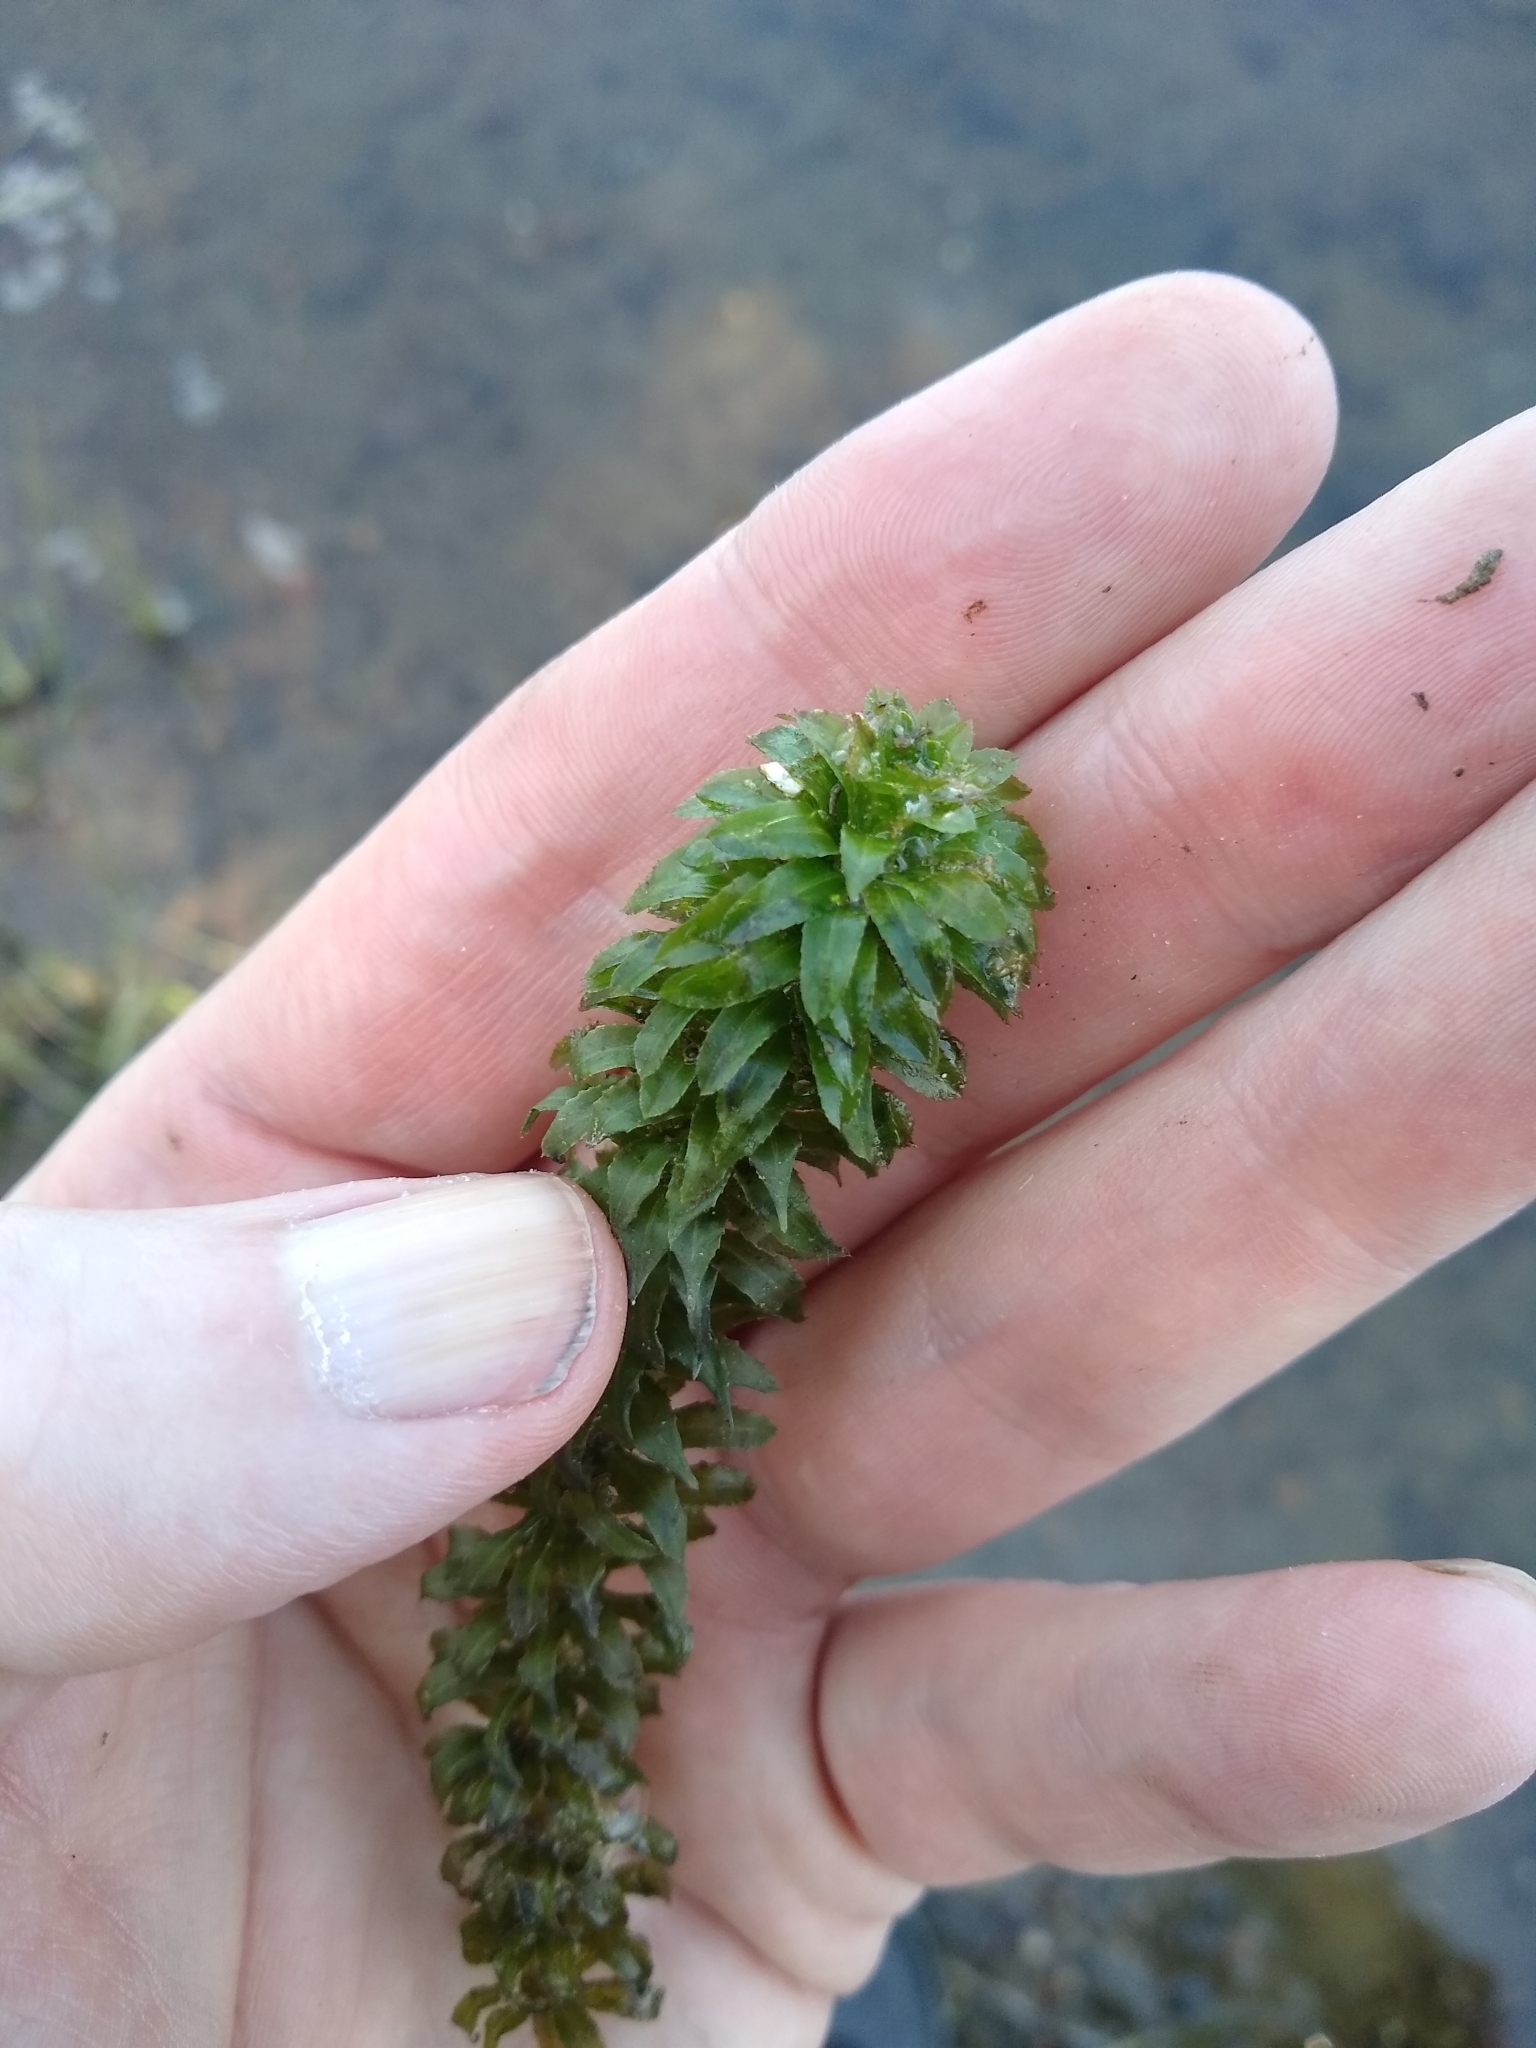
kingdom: Plantae
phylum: Tracheophyta
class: Liliopsida
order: Alismatales
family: Hydrocharitaceae
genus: Hydrilla
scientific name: Hydrilla verticillata
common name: Florida-elodea
